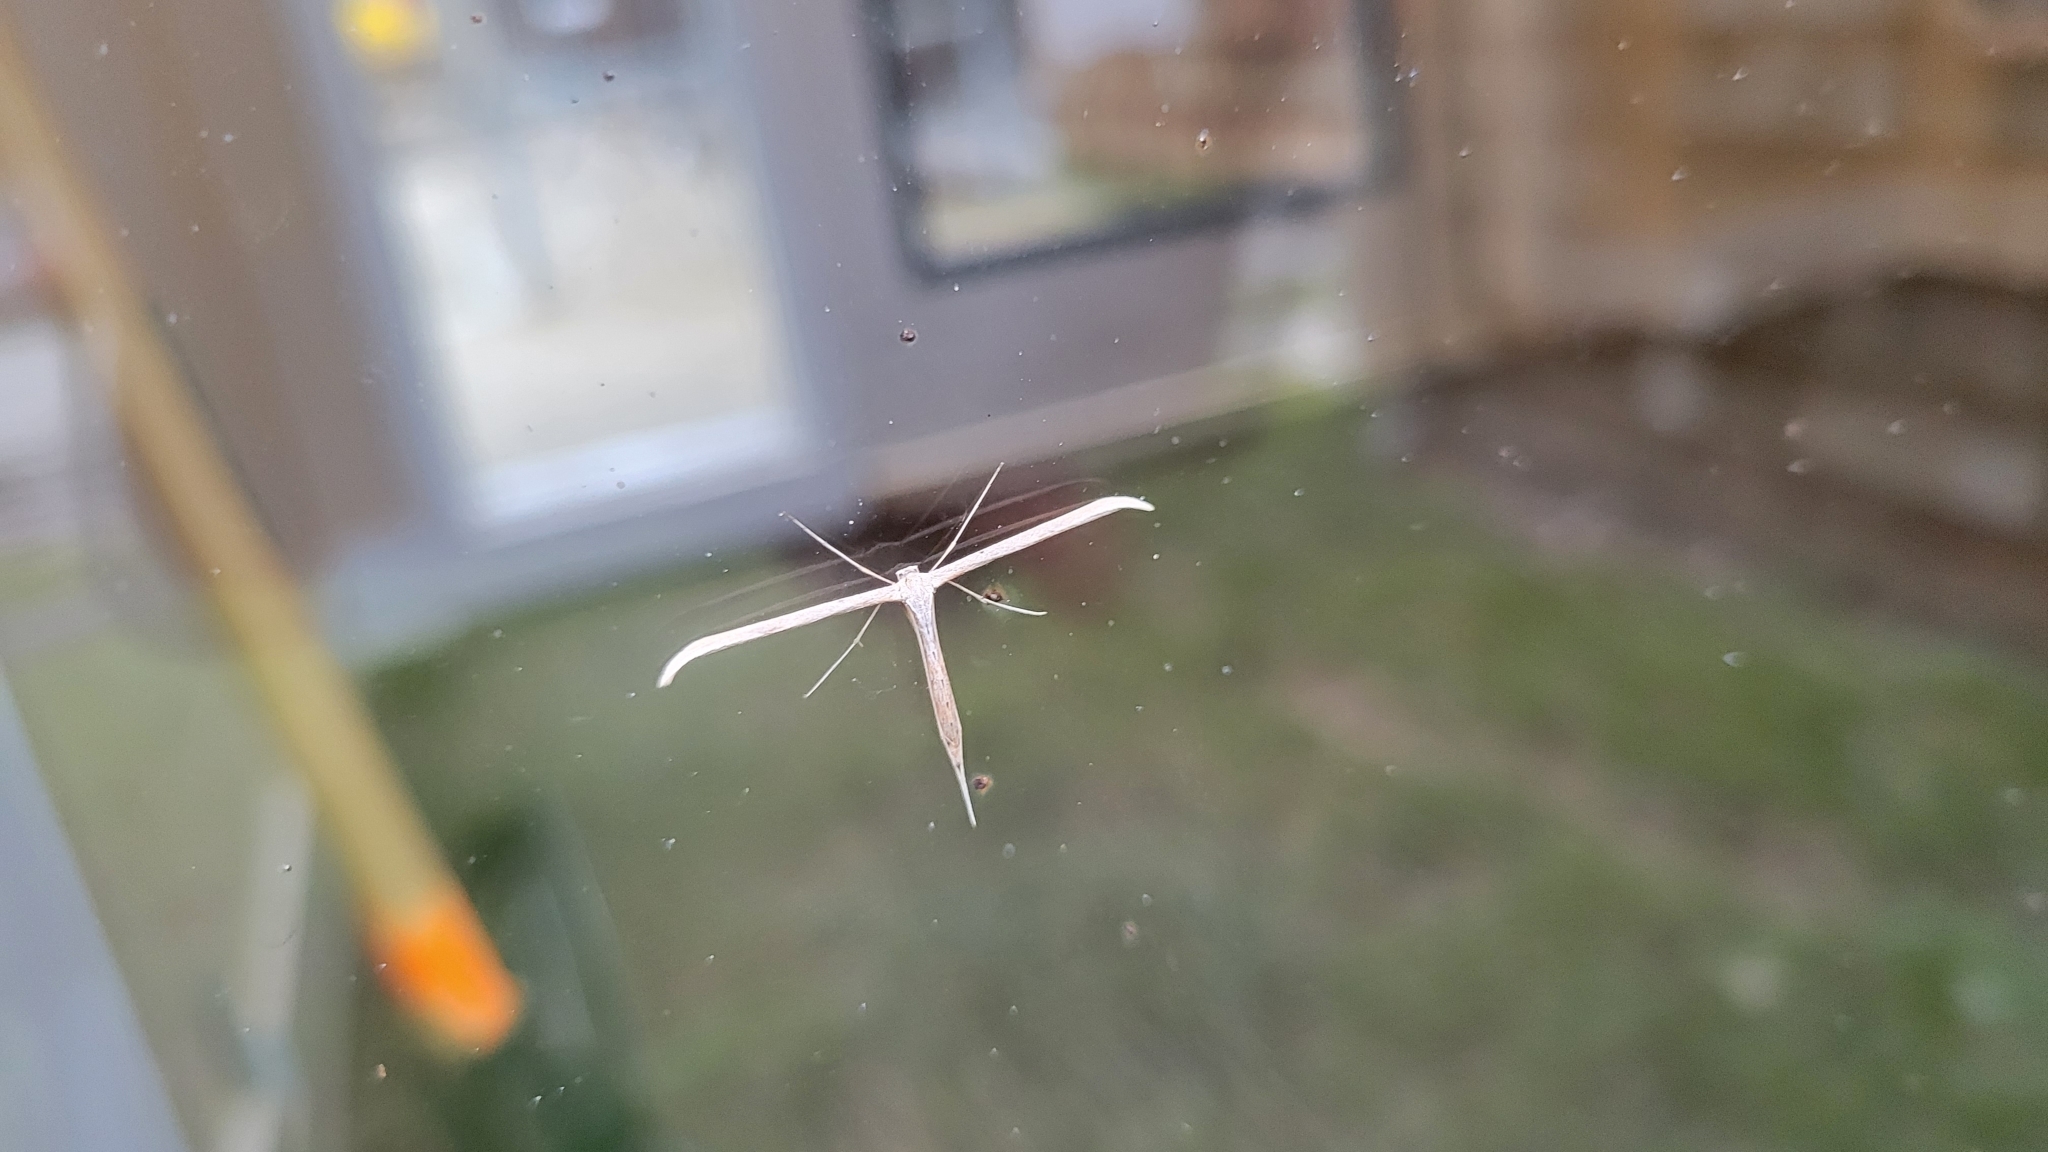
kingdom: Animalia
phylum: Arthropoda
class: Insecta
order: Lepidoptera
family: Pterophoridae
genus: Emmelina
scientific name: Emmelina monodactyla
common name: Common plume
